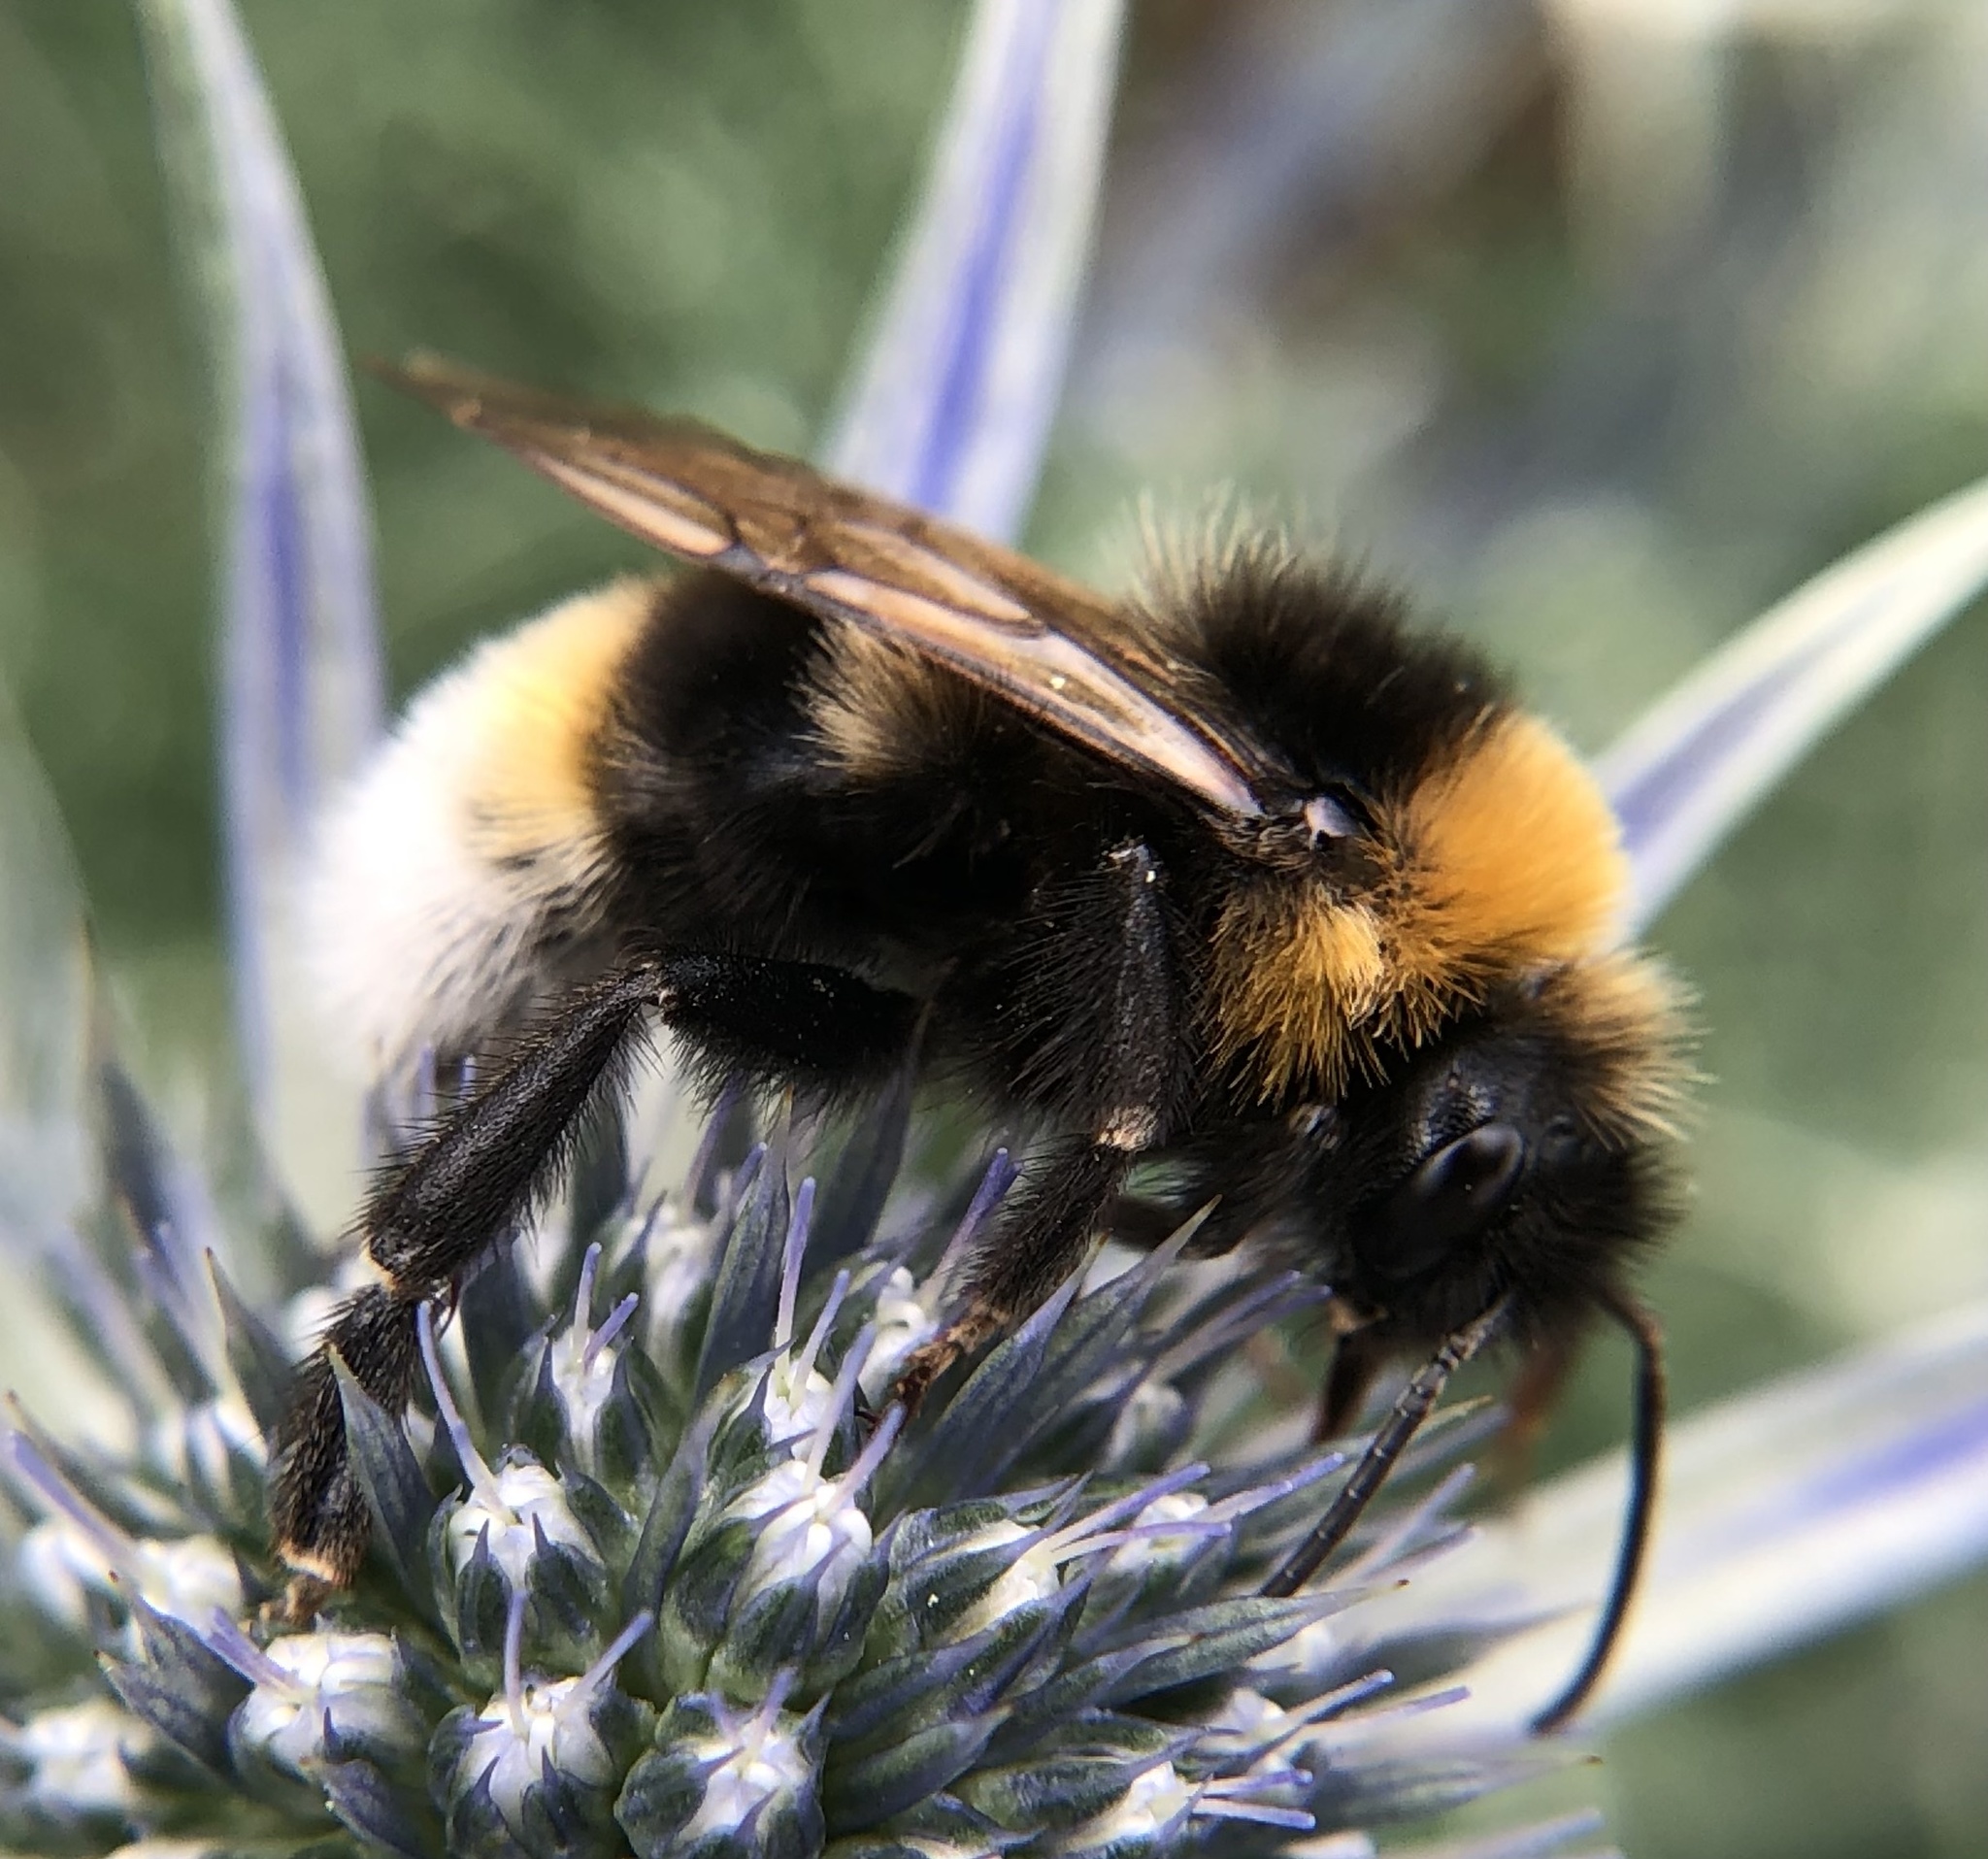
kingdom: Animalia
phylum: Arthropoda
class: Insecta
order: Hymenoptera
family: Apidae
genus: Bombus
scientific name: Bombus vestalis
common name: Vestal cuckoo bee
